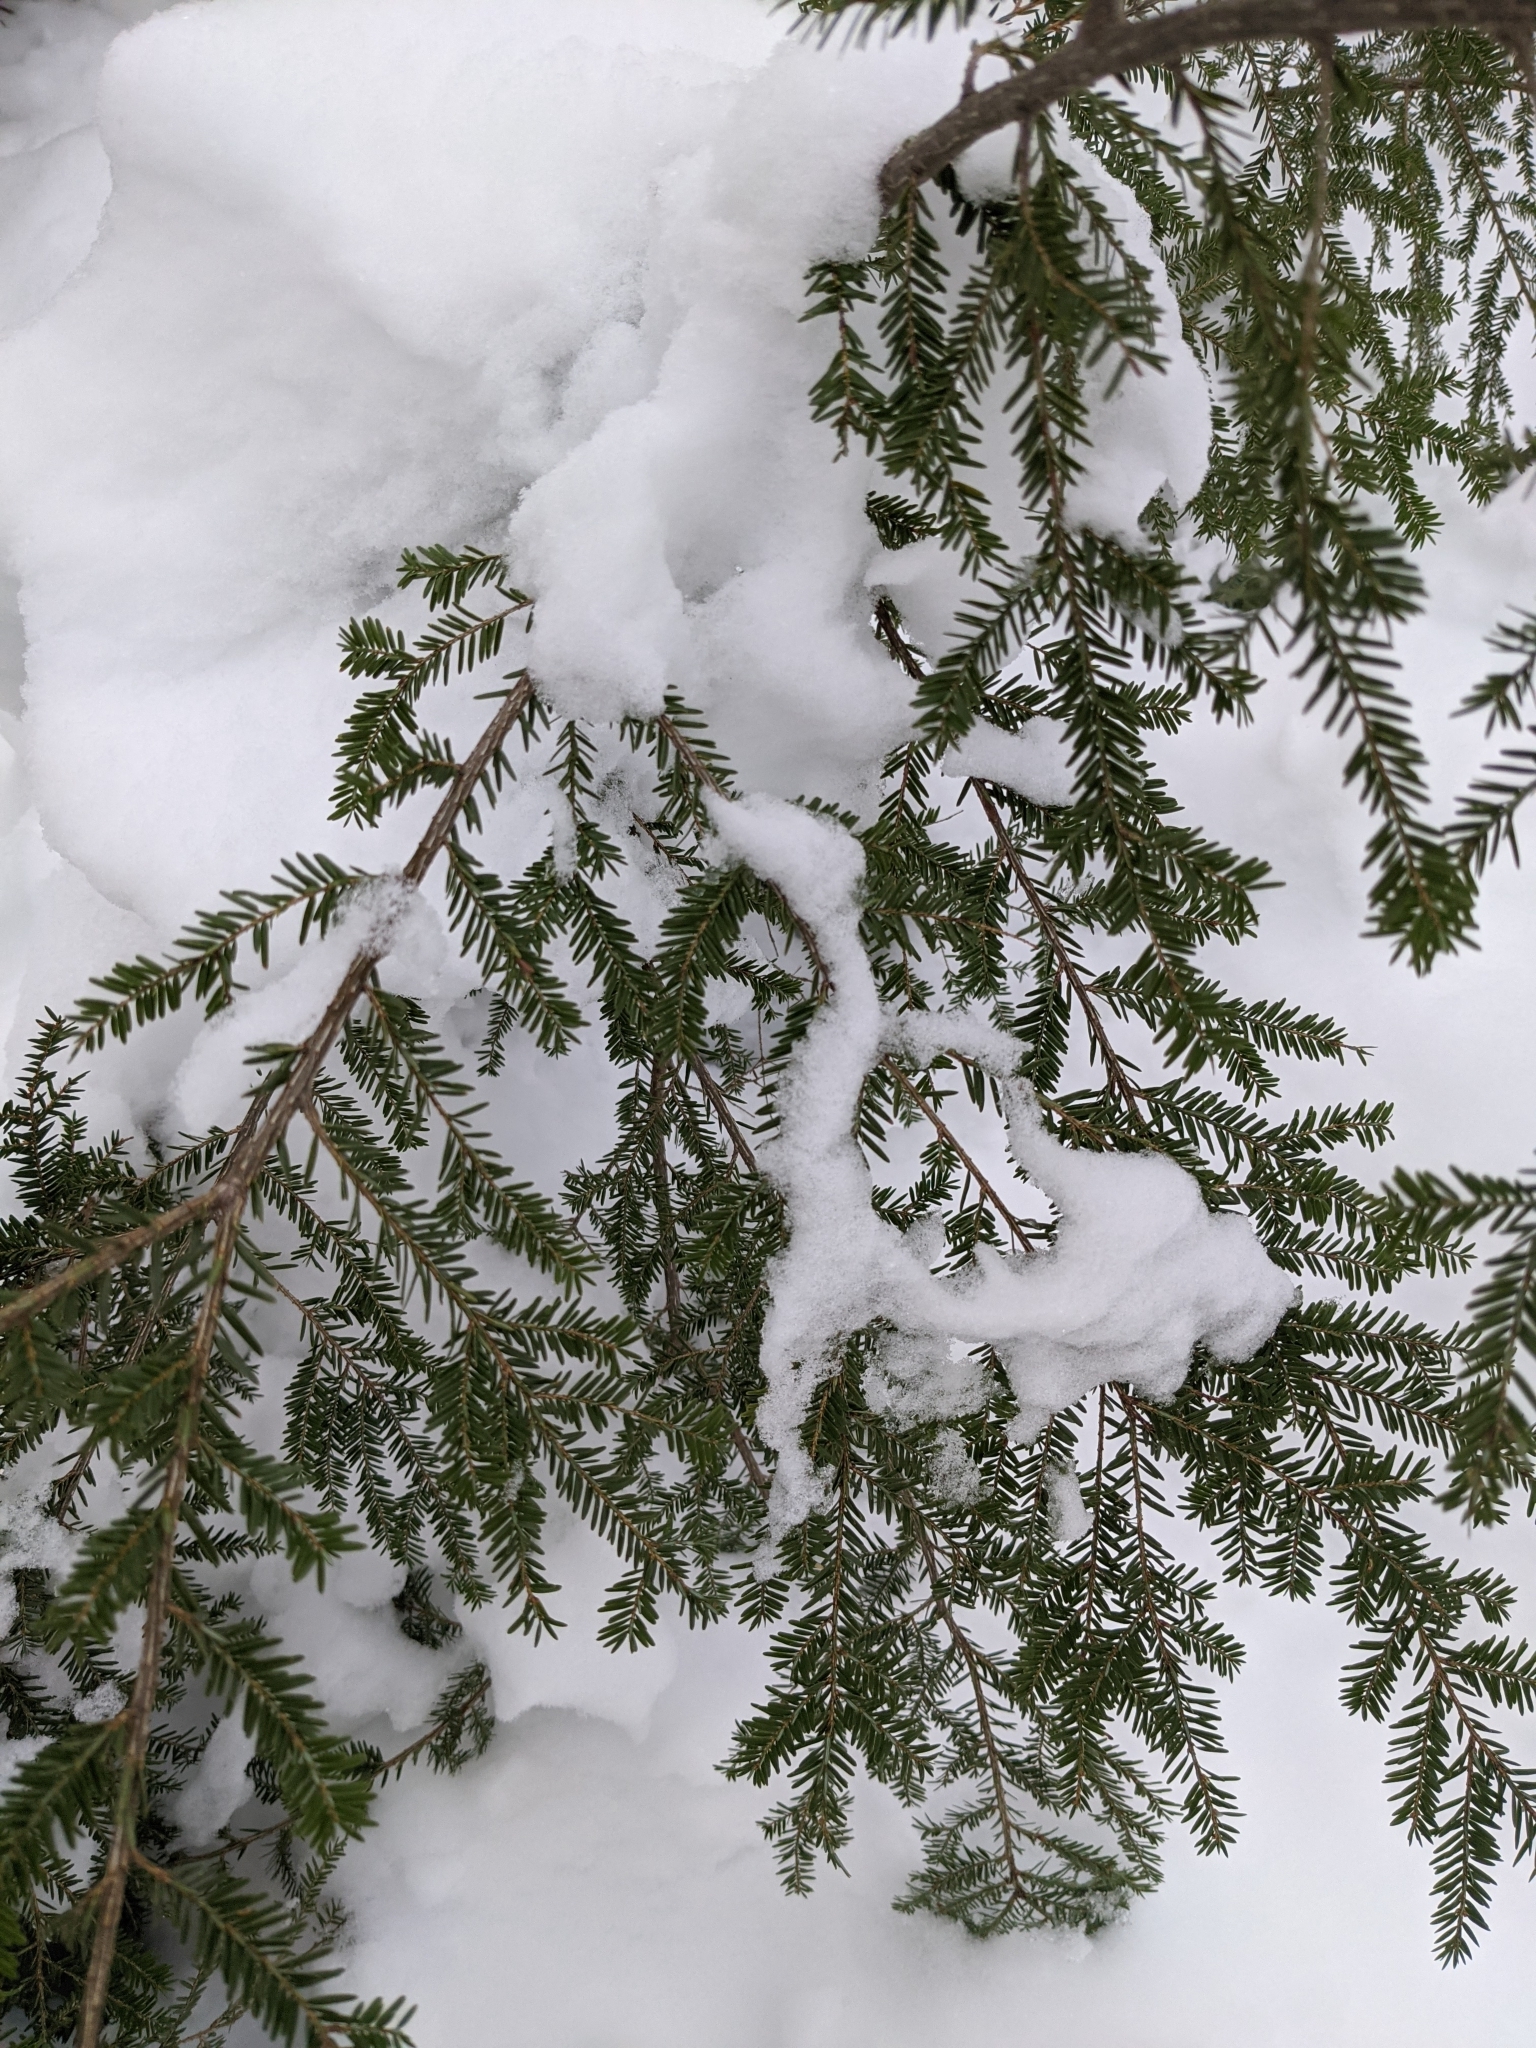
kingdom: Plantae
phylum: Tracheophyta
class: Pinopsida
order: Pinales
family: Pinaceae
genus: Tsuga
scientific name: Tsuga canadensis
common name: Eastern hemlock
